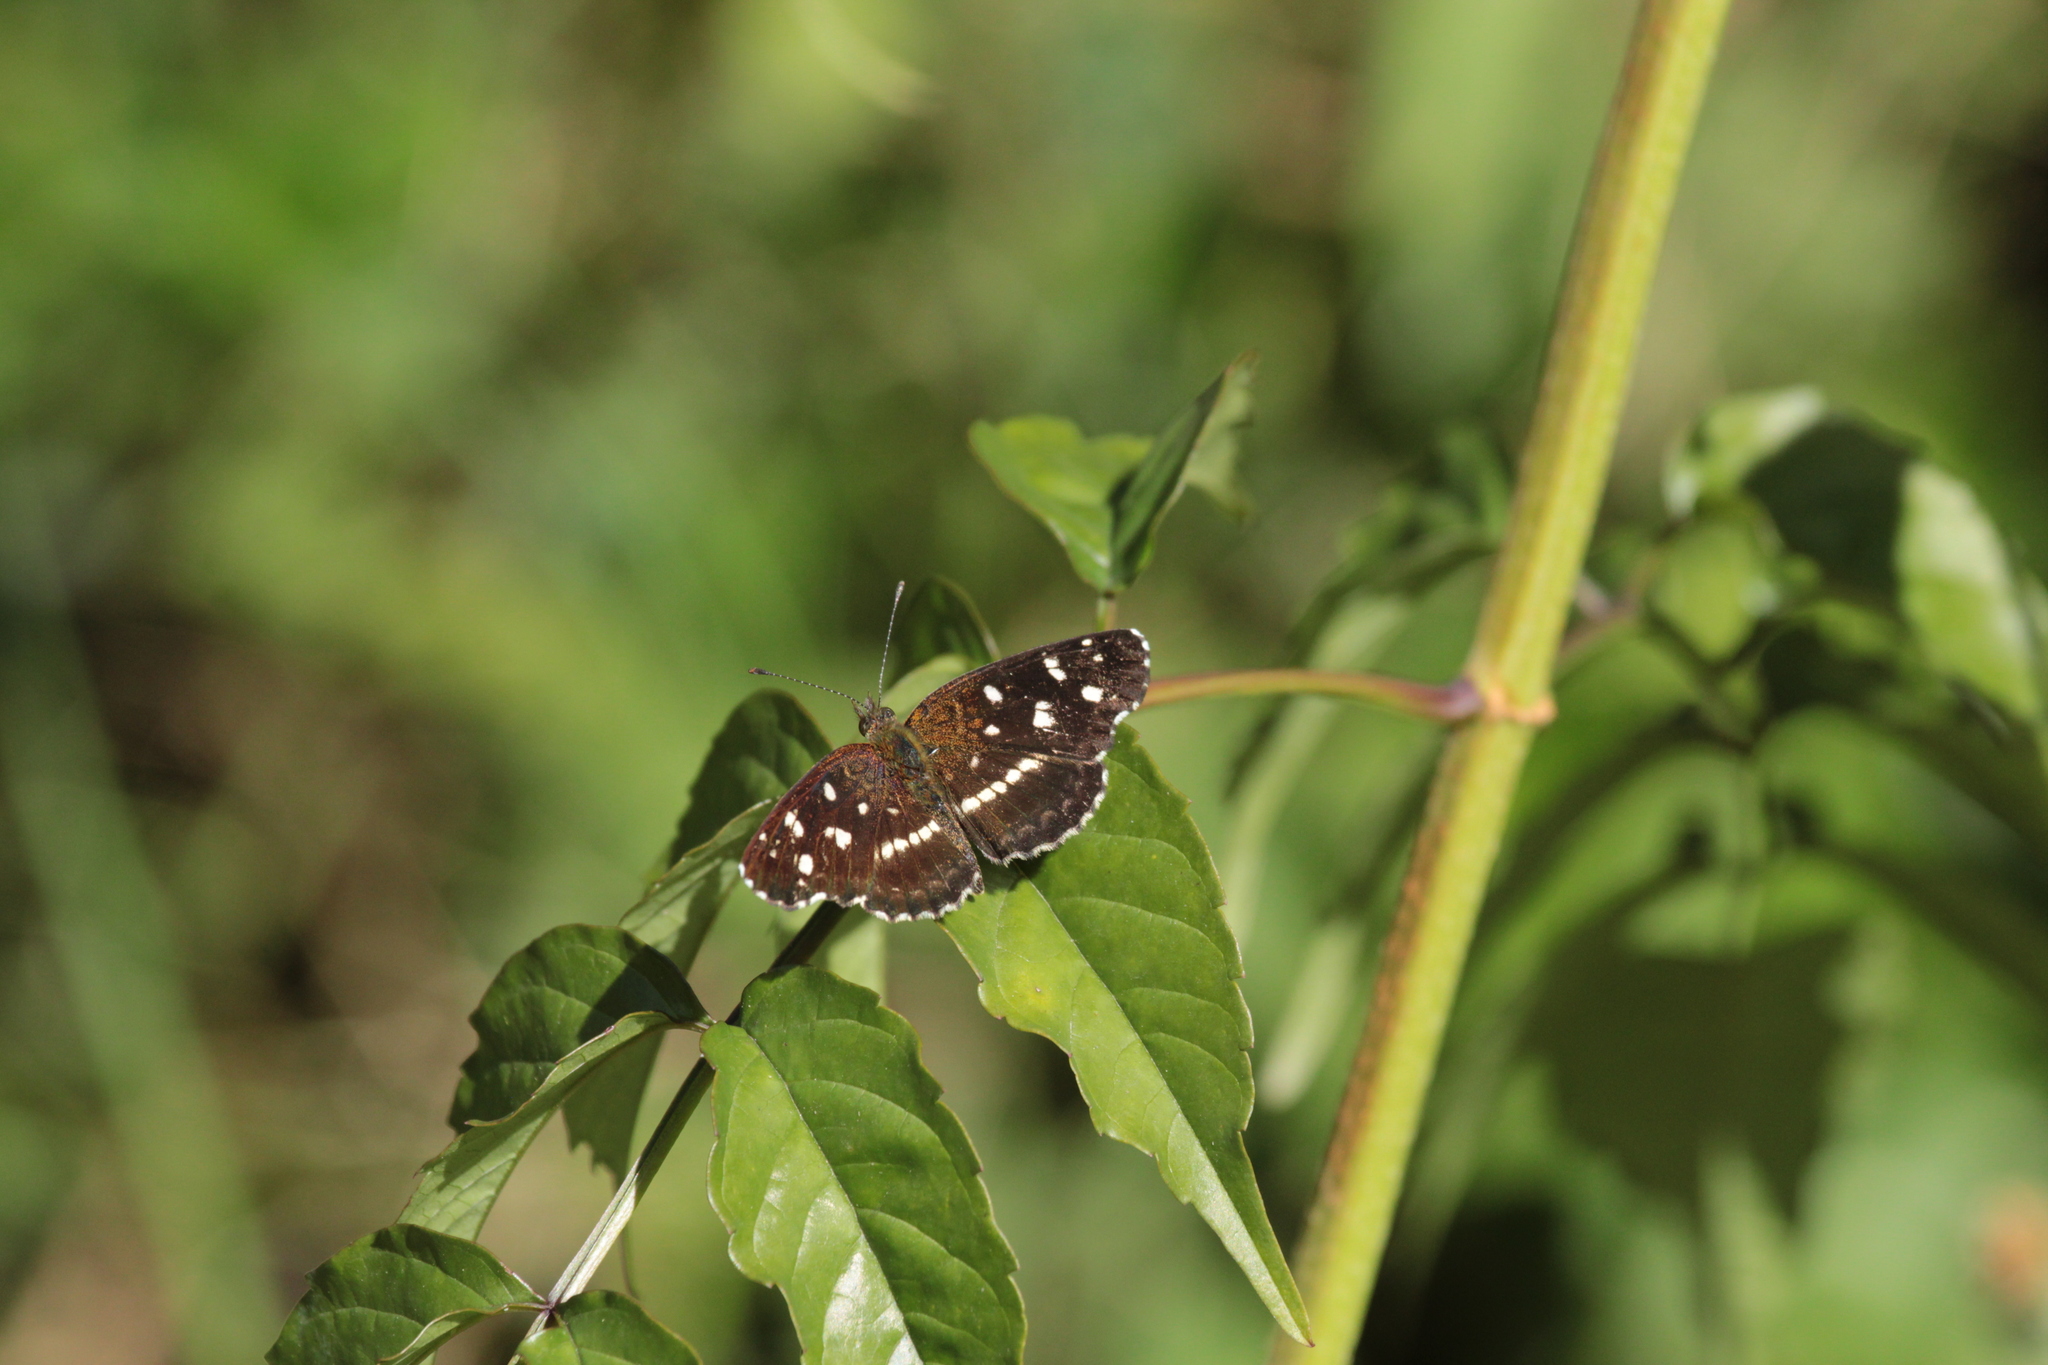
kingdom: Animalia
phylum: Arthropoda
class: Insecta
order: Lepidoptera
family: Nymphalidae
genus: Ortilia
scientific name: Ortilia ithra
